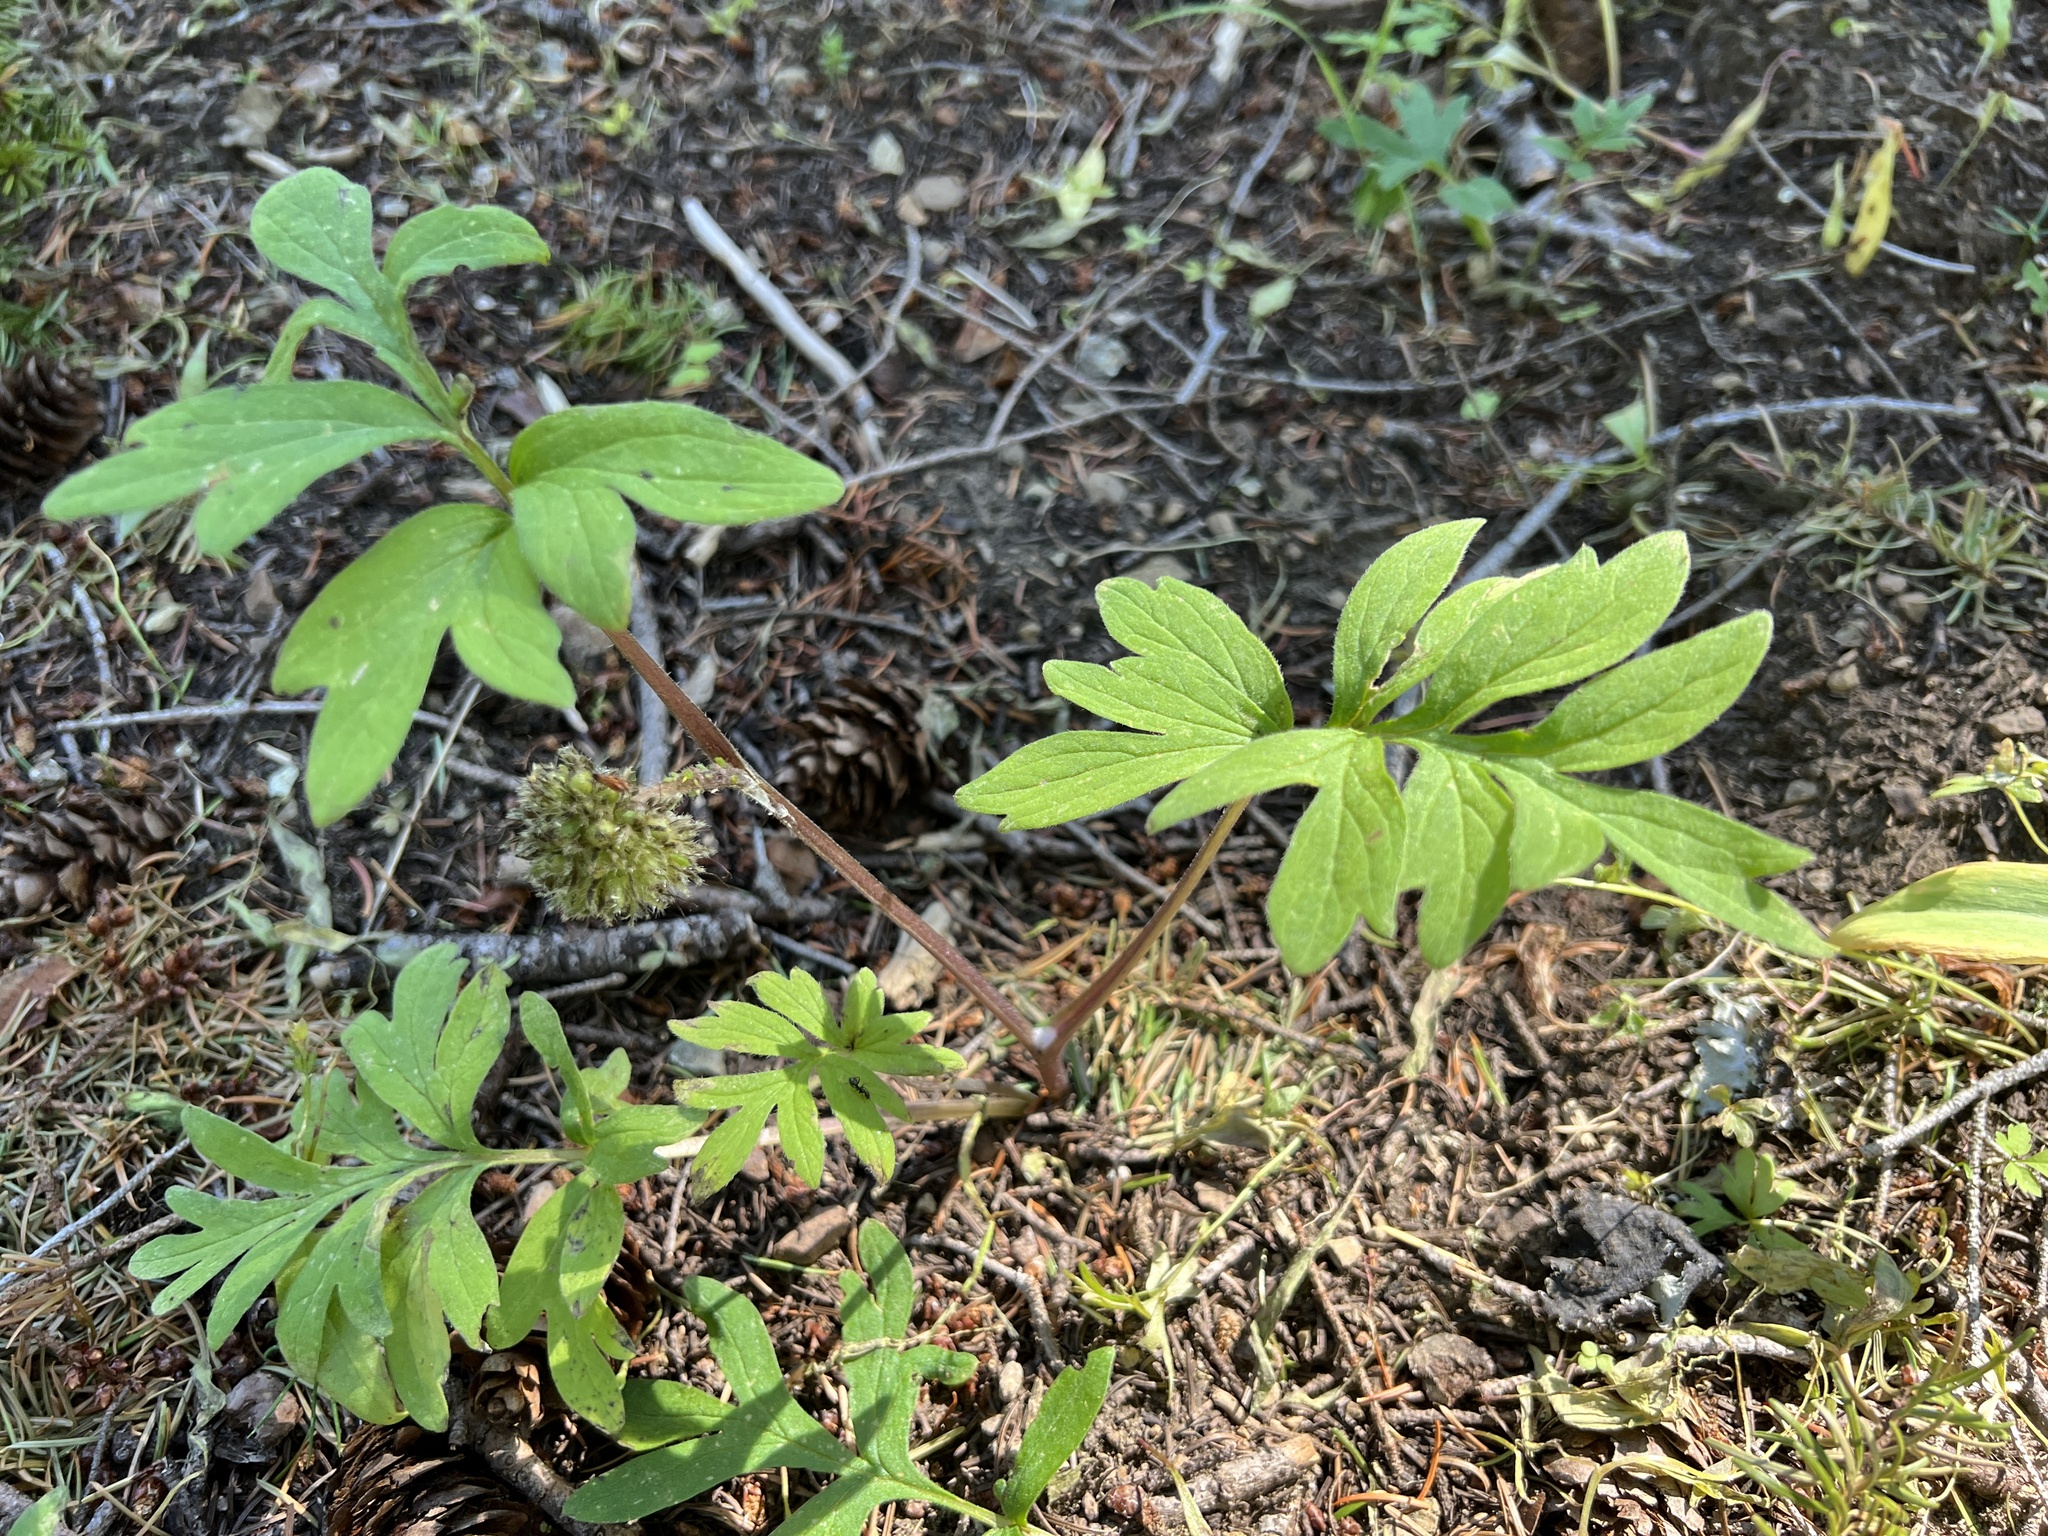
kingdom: Plantae
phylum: Tracheophyta
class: Magnoliopsida
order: Boraginales
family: Hydrophyllaceae
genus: Hydrophyllum
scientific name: Hydrophyllum capitatum
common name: Woollen-breeches
